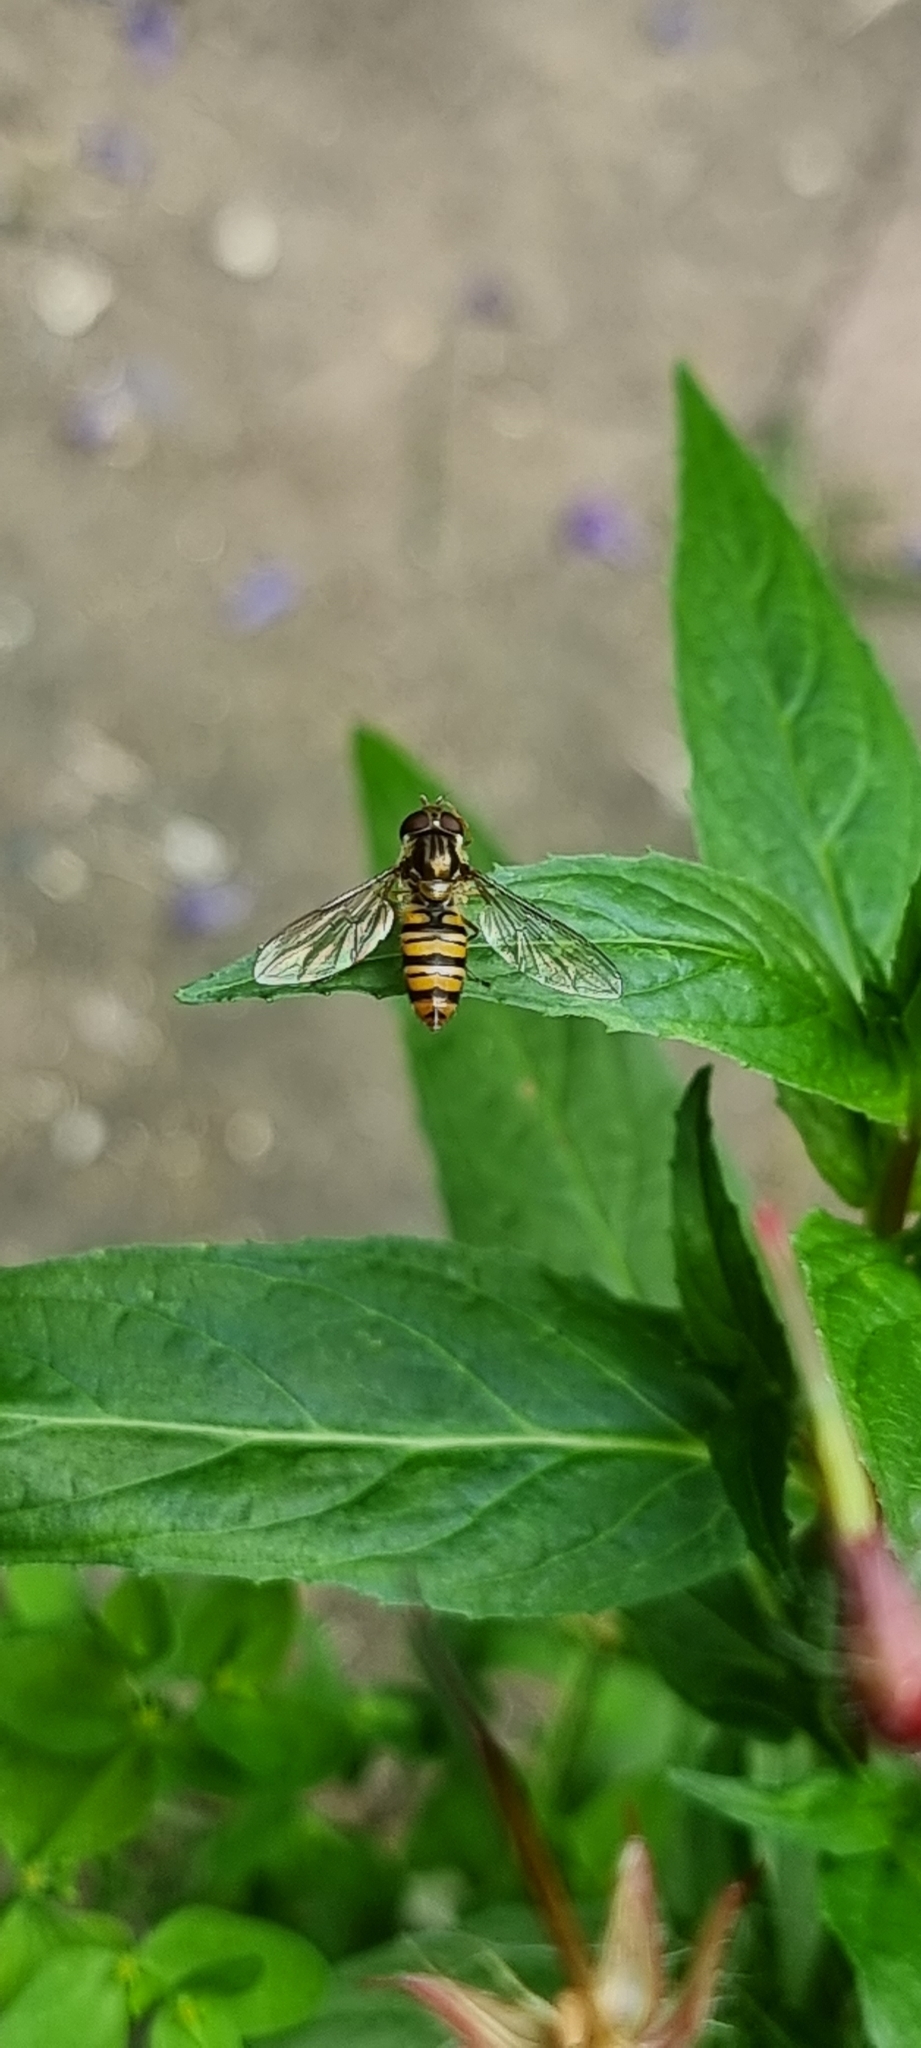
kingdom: Animalia
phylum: Arthropoda
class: Insecta
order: Diptera
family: Syrphidae
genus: Episyrphus
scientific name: Episyrphus balteatus
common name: Marmalade hoverfly
